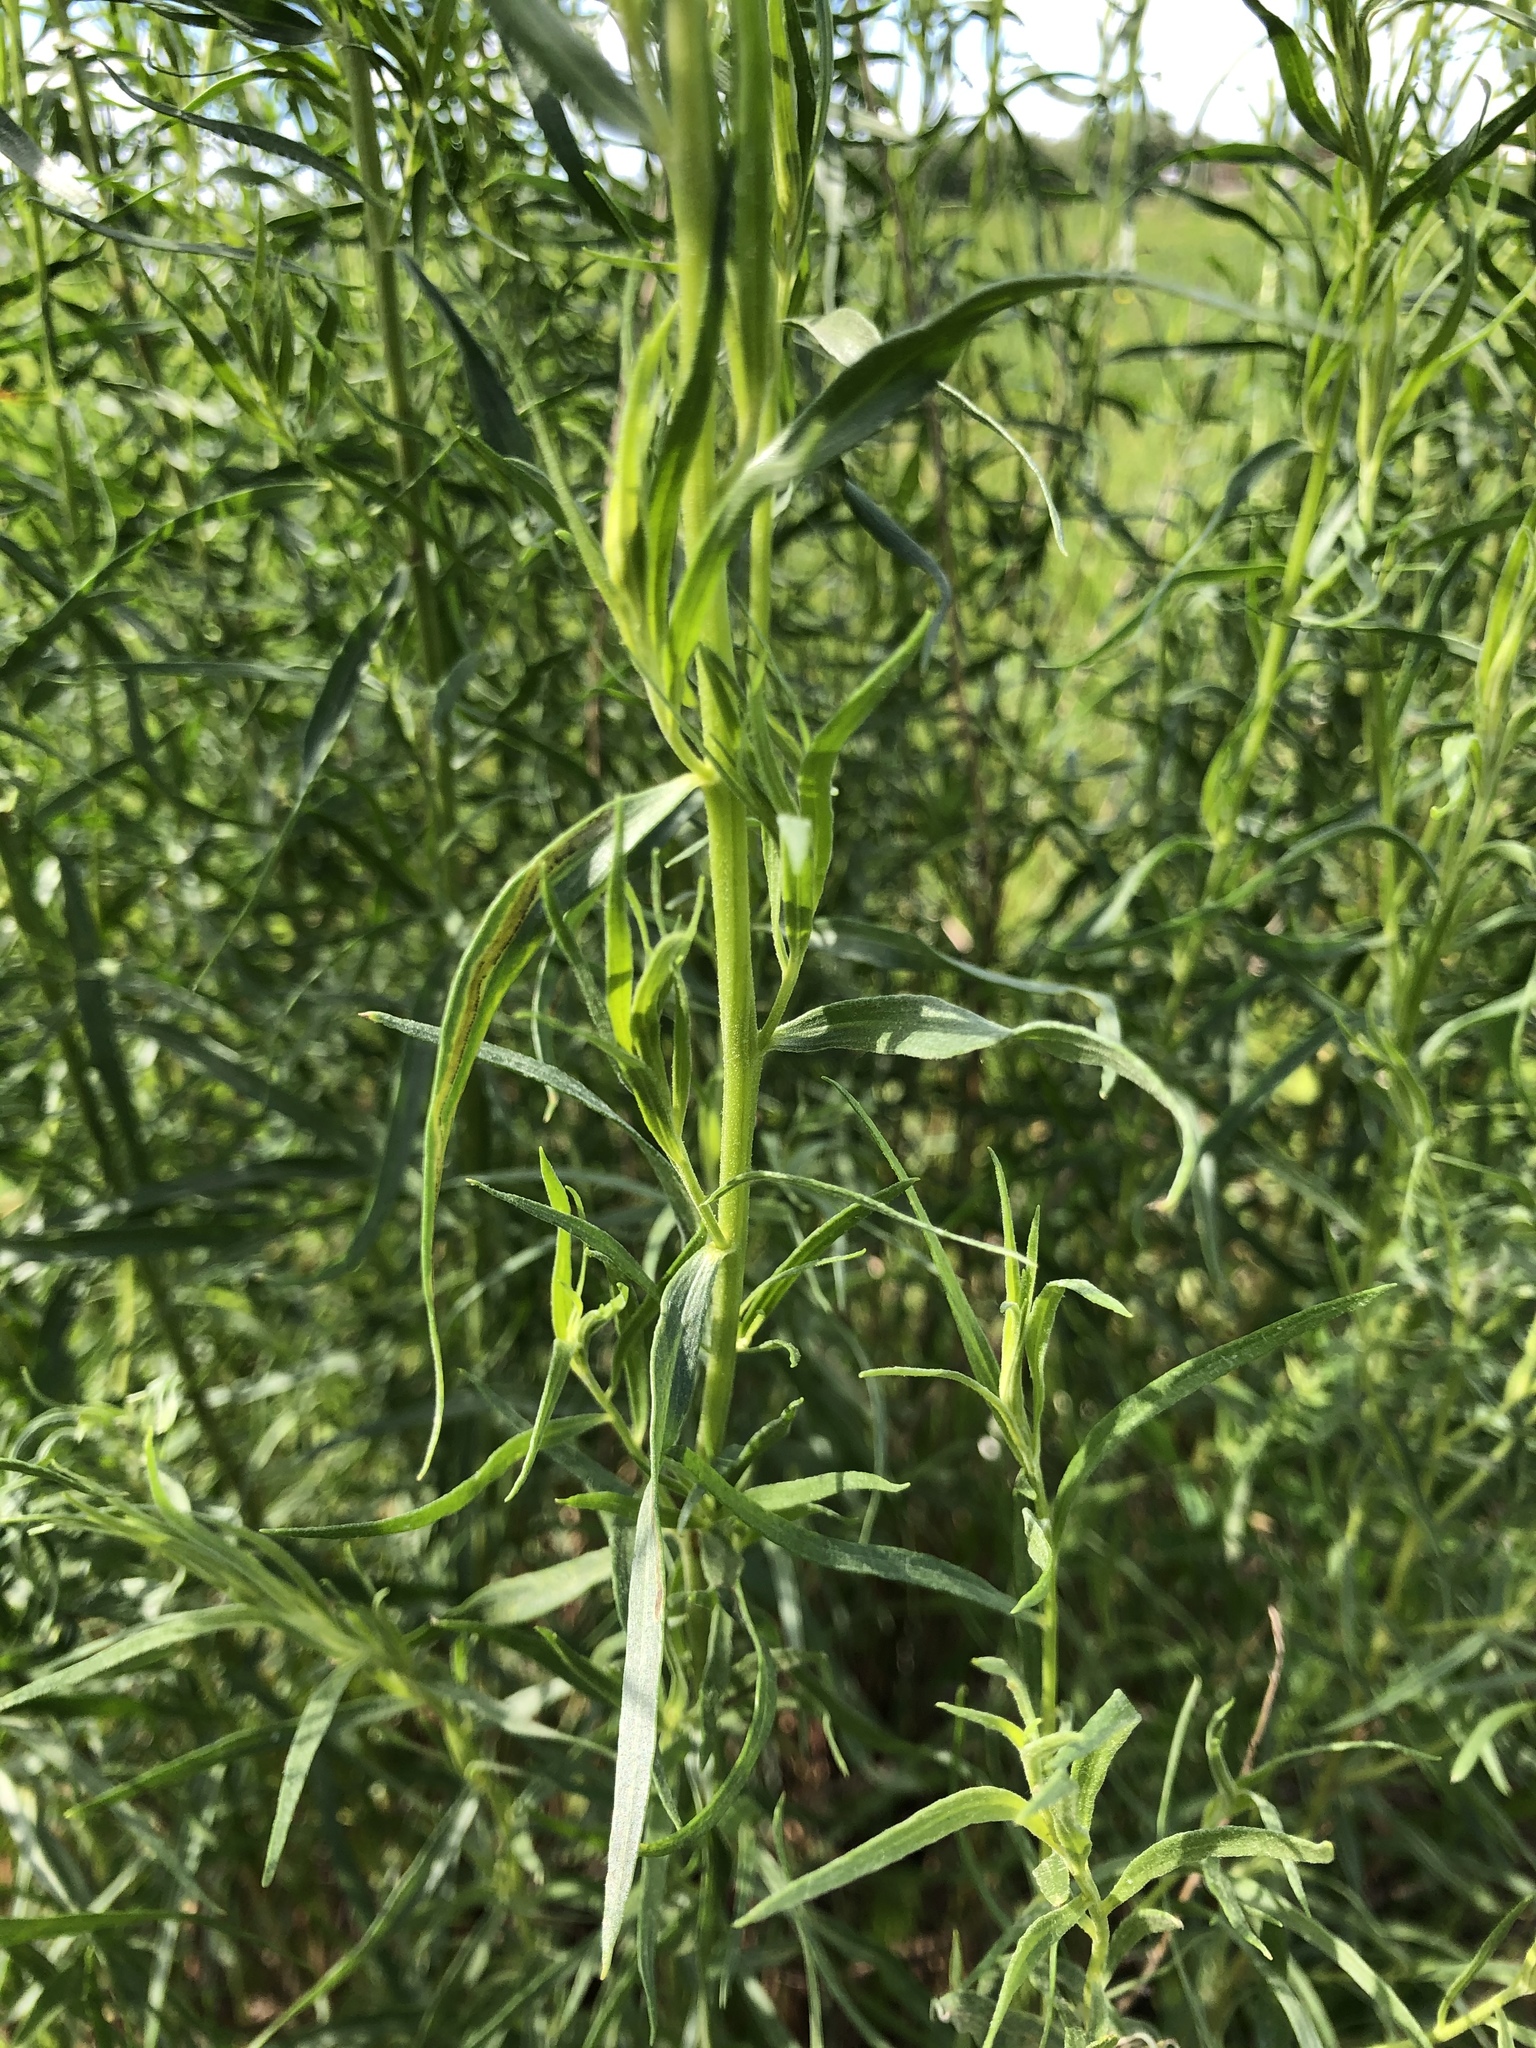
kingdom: Plantae
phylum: Tracheophyta
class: Magnoliopsida
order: Asterales
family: Asteraceae
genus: Artemisia
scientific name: Artemisia dracunculus
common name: Tarragon
